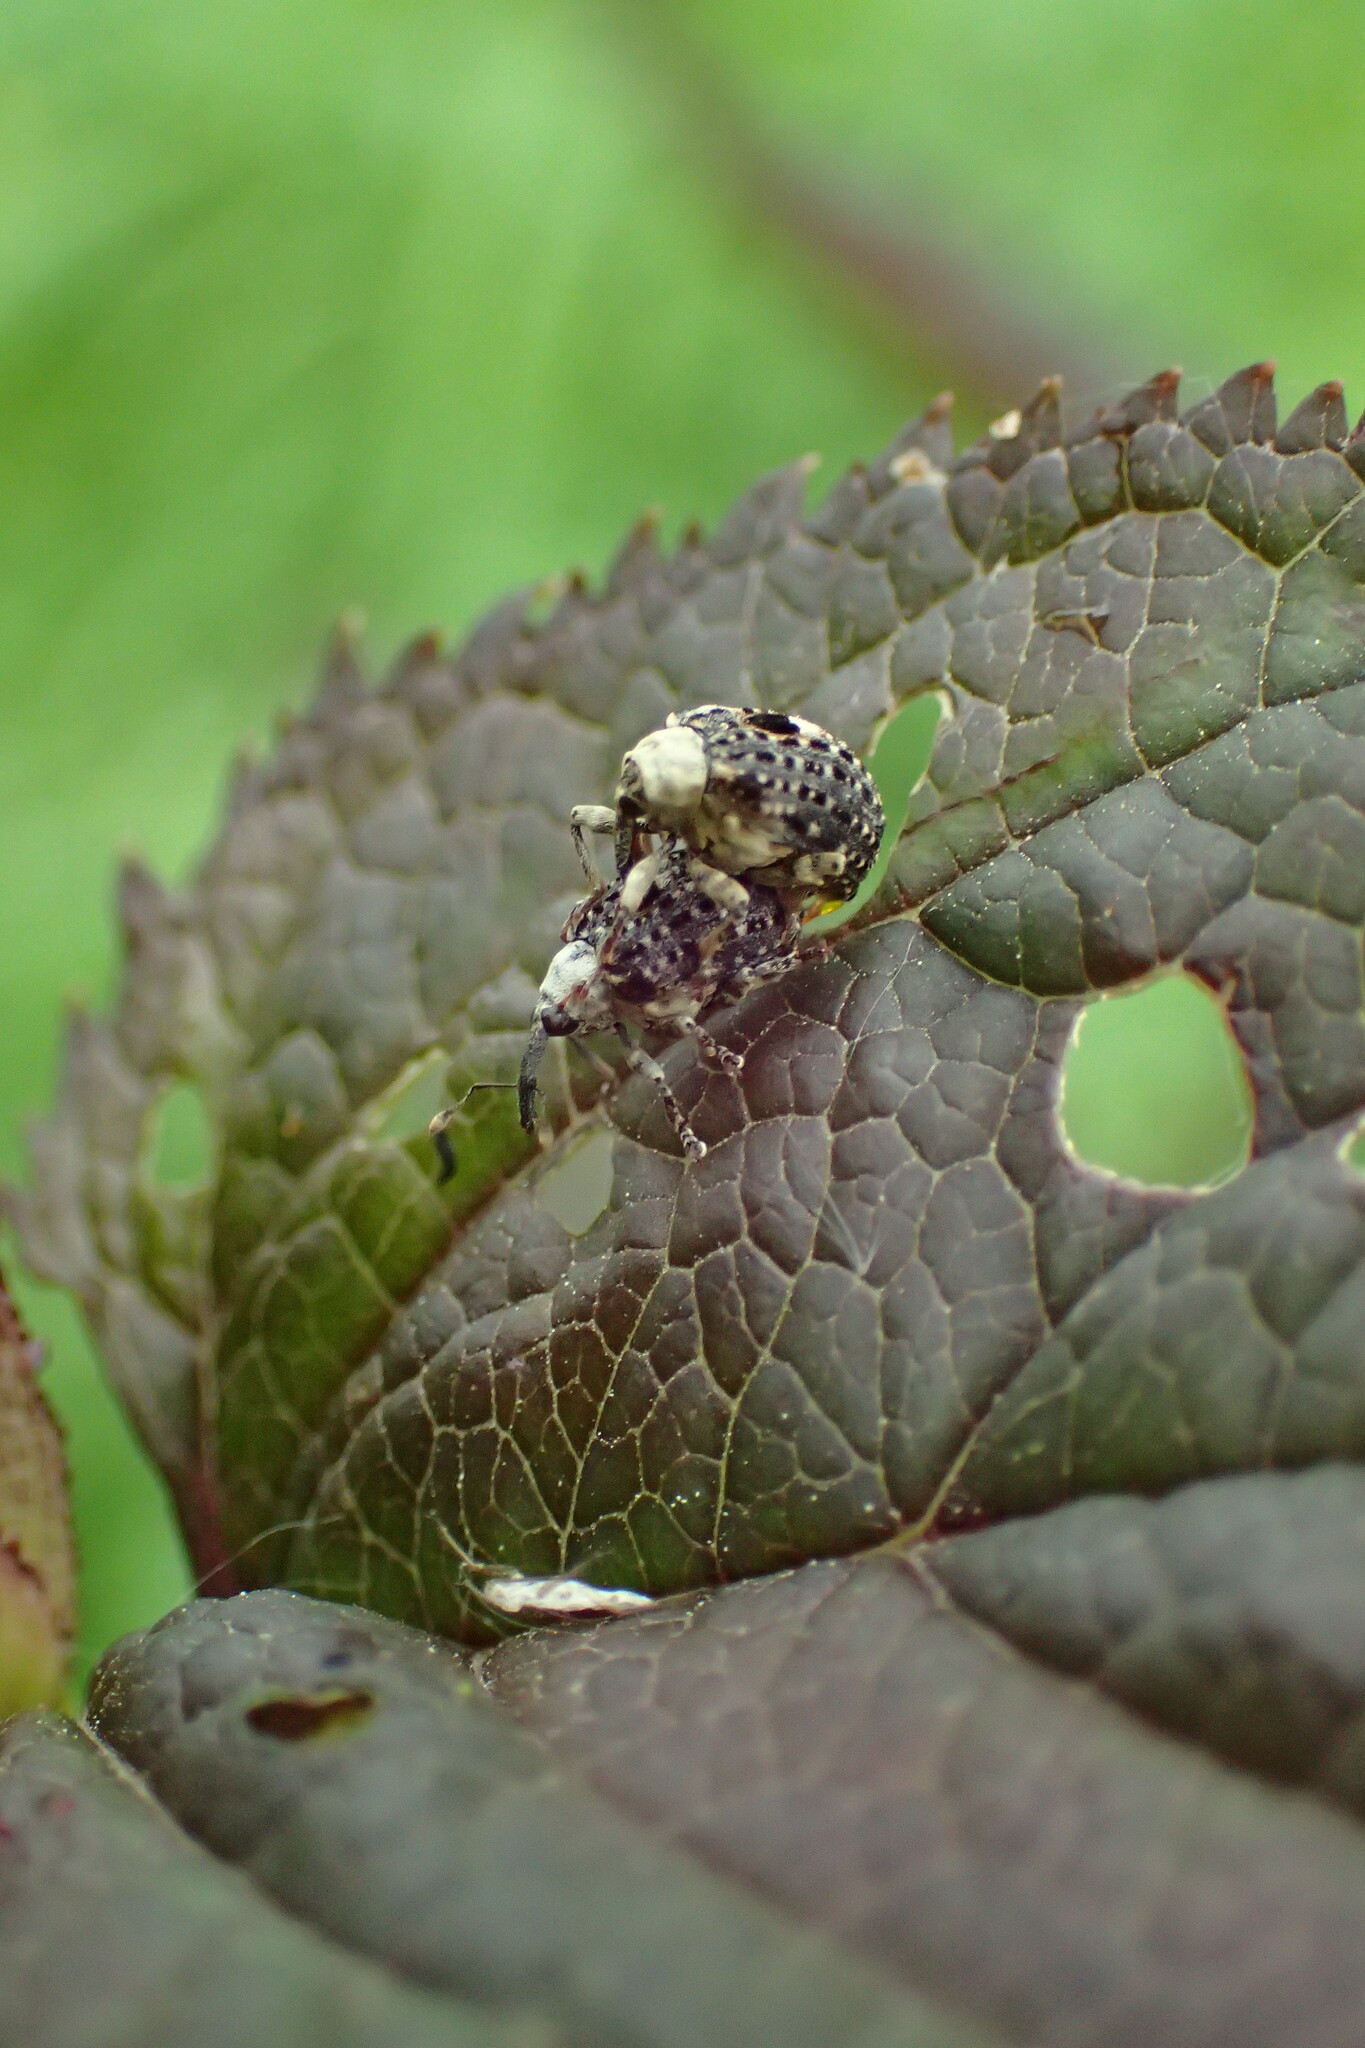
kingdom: Animalia
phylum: Arthropoda
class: Insecta
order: Coleoptera
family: Curculionidae
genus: Cionus
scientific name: Cionus scrophulariae
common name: Common figwort weevil
